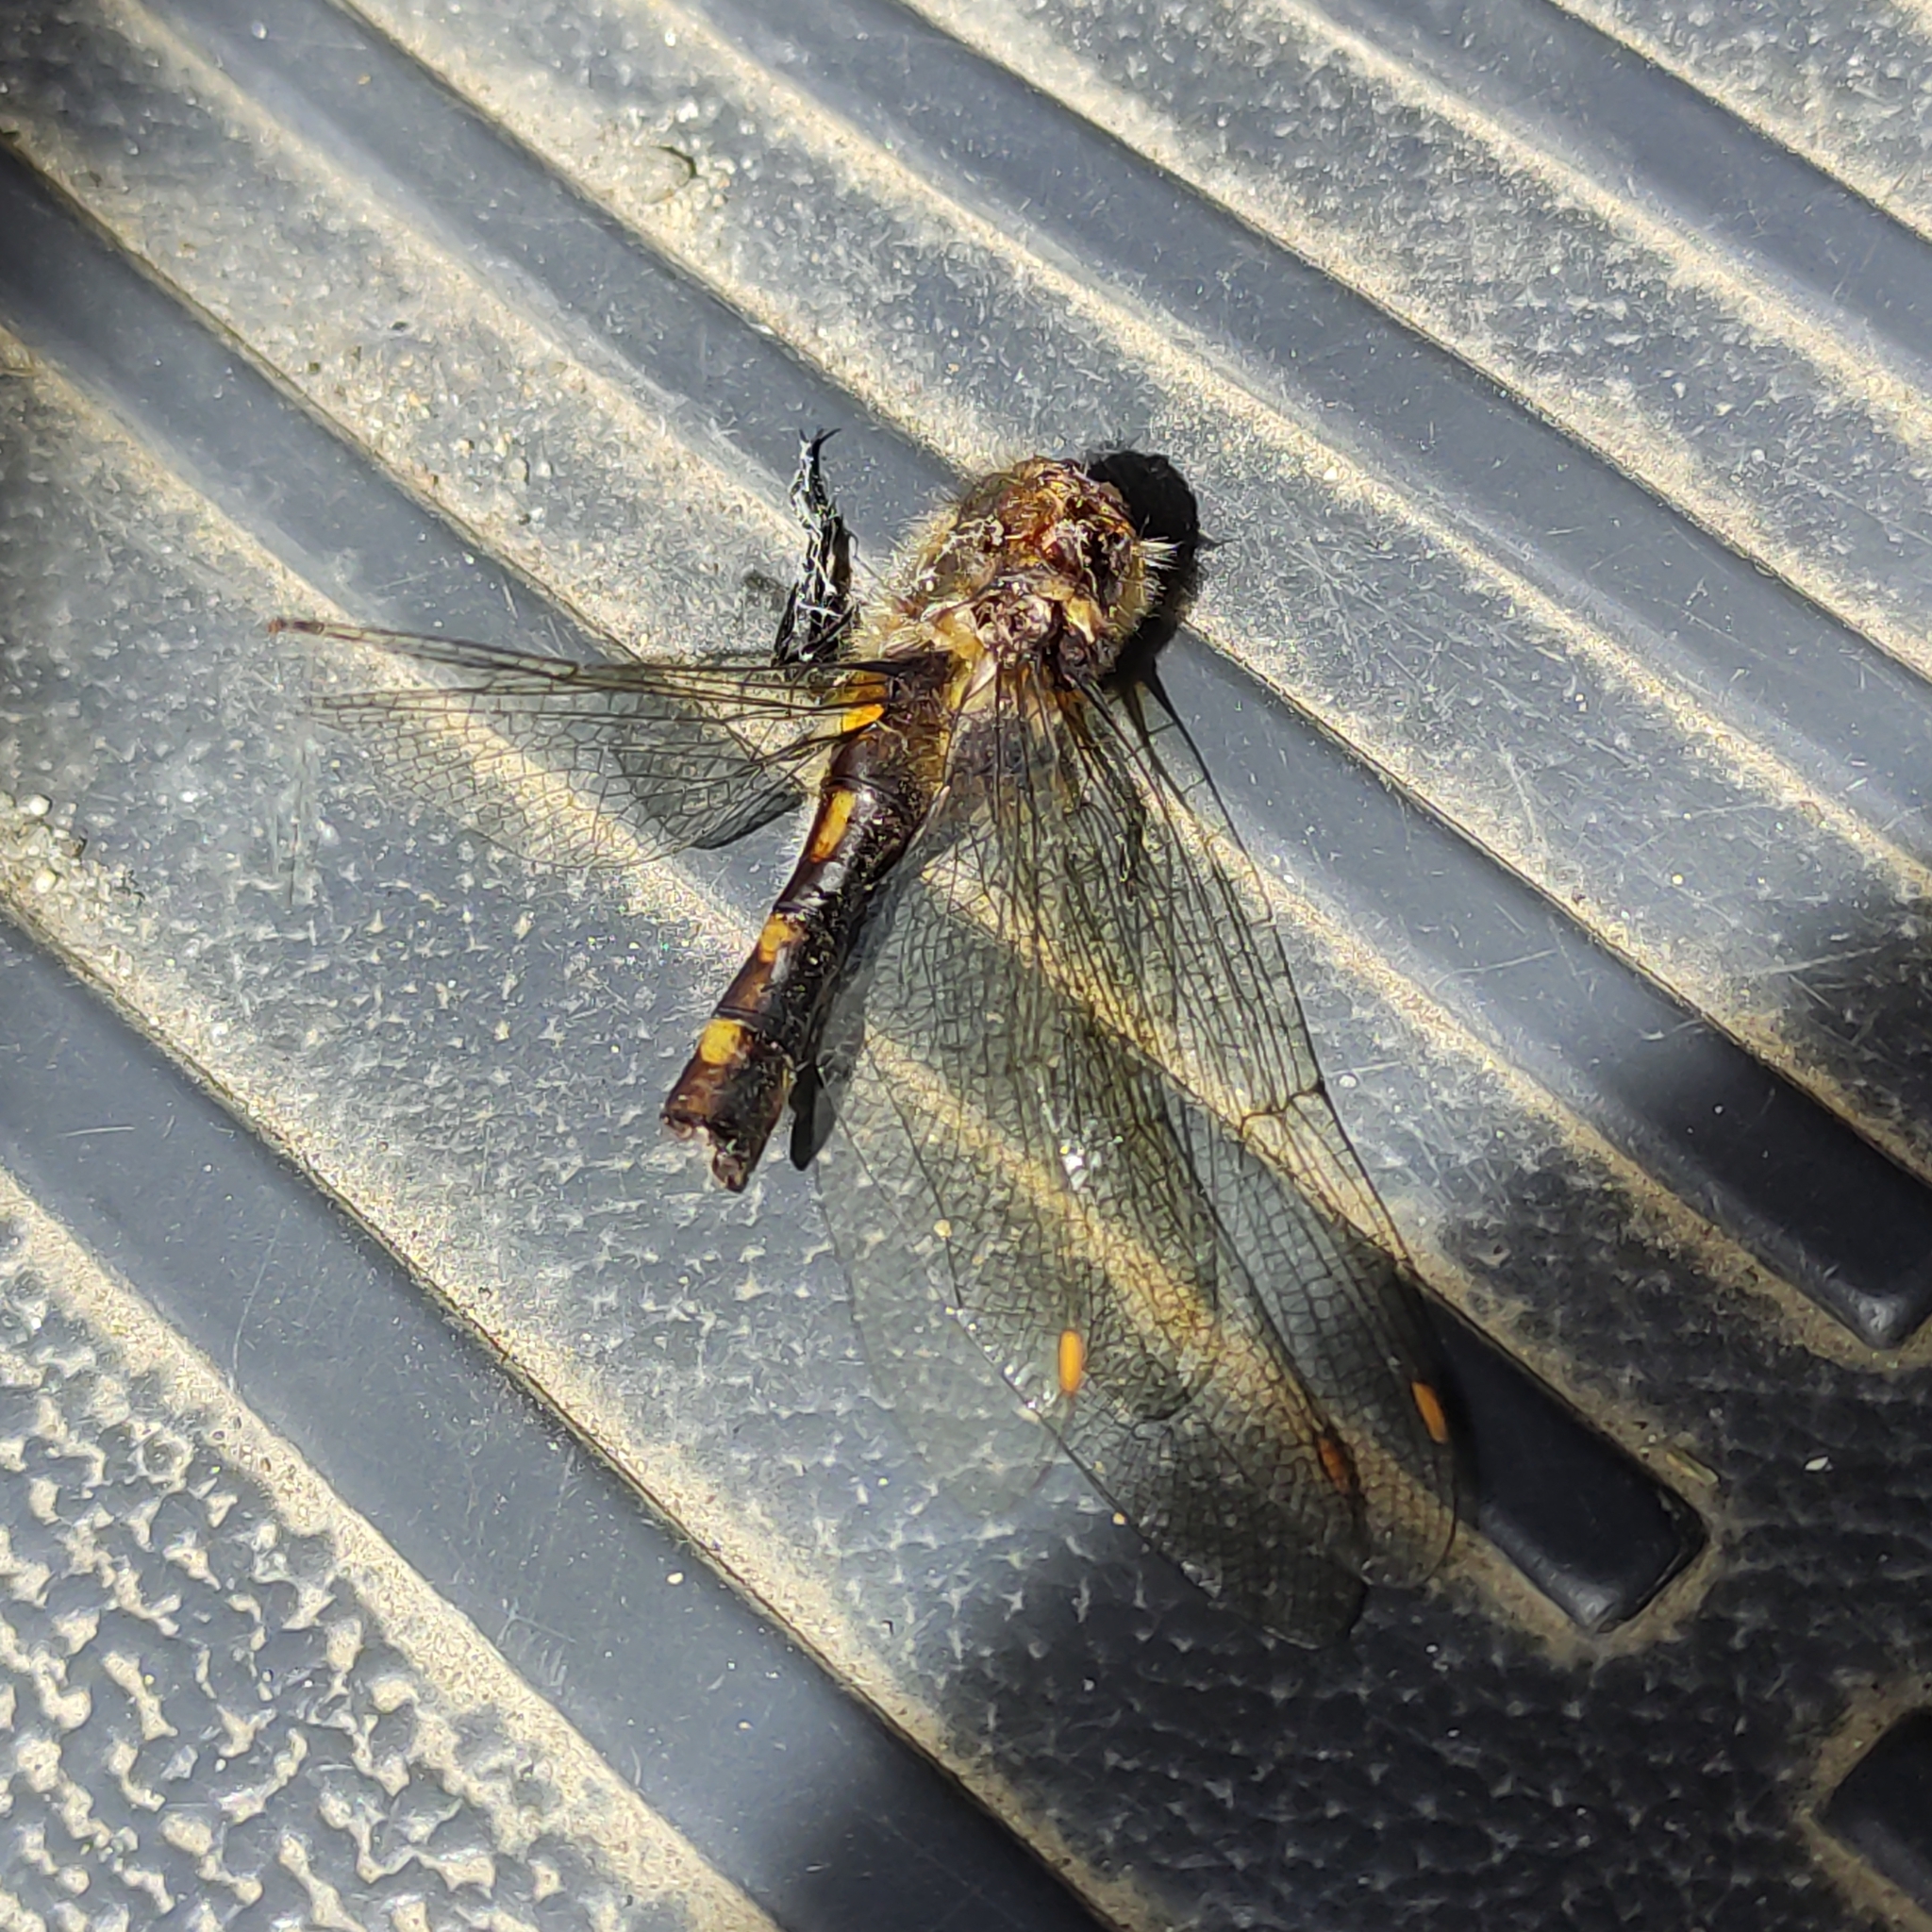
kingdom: Animalia
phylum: Arthropoda
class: Insecta
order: Odonata
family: Corduliidae
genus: Procordulia
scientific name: Procordulia grayi
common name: Yellow spotted dragonfly
